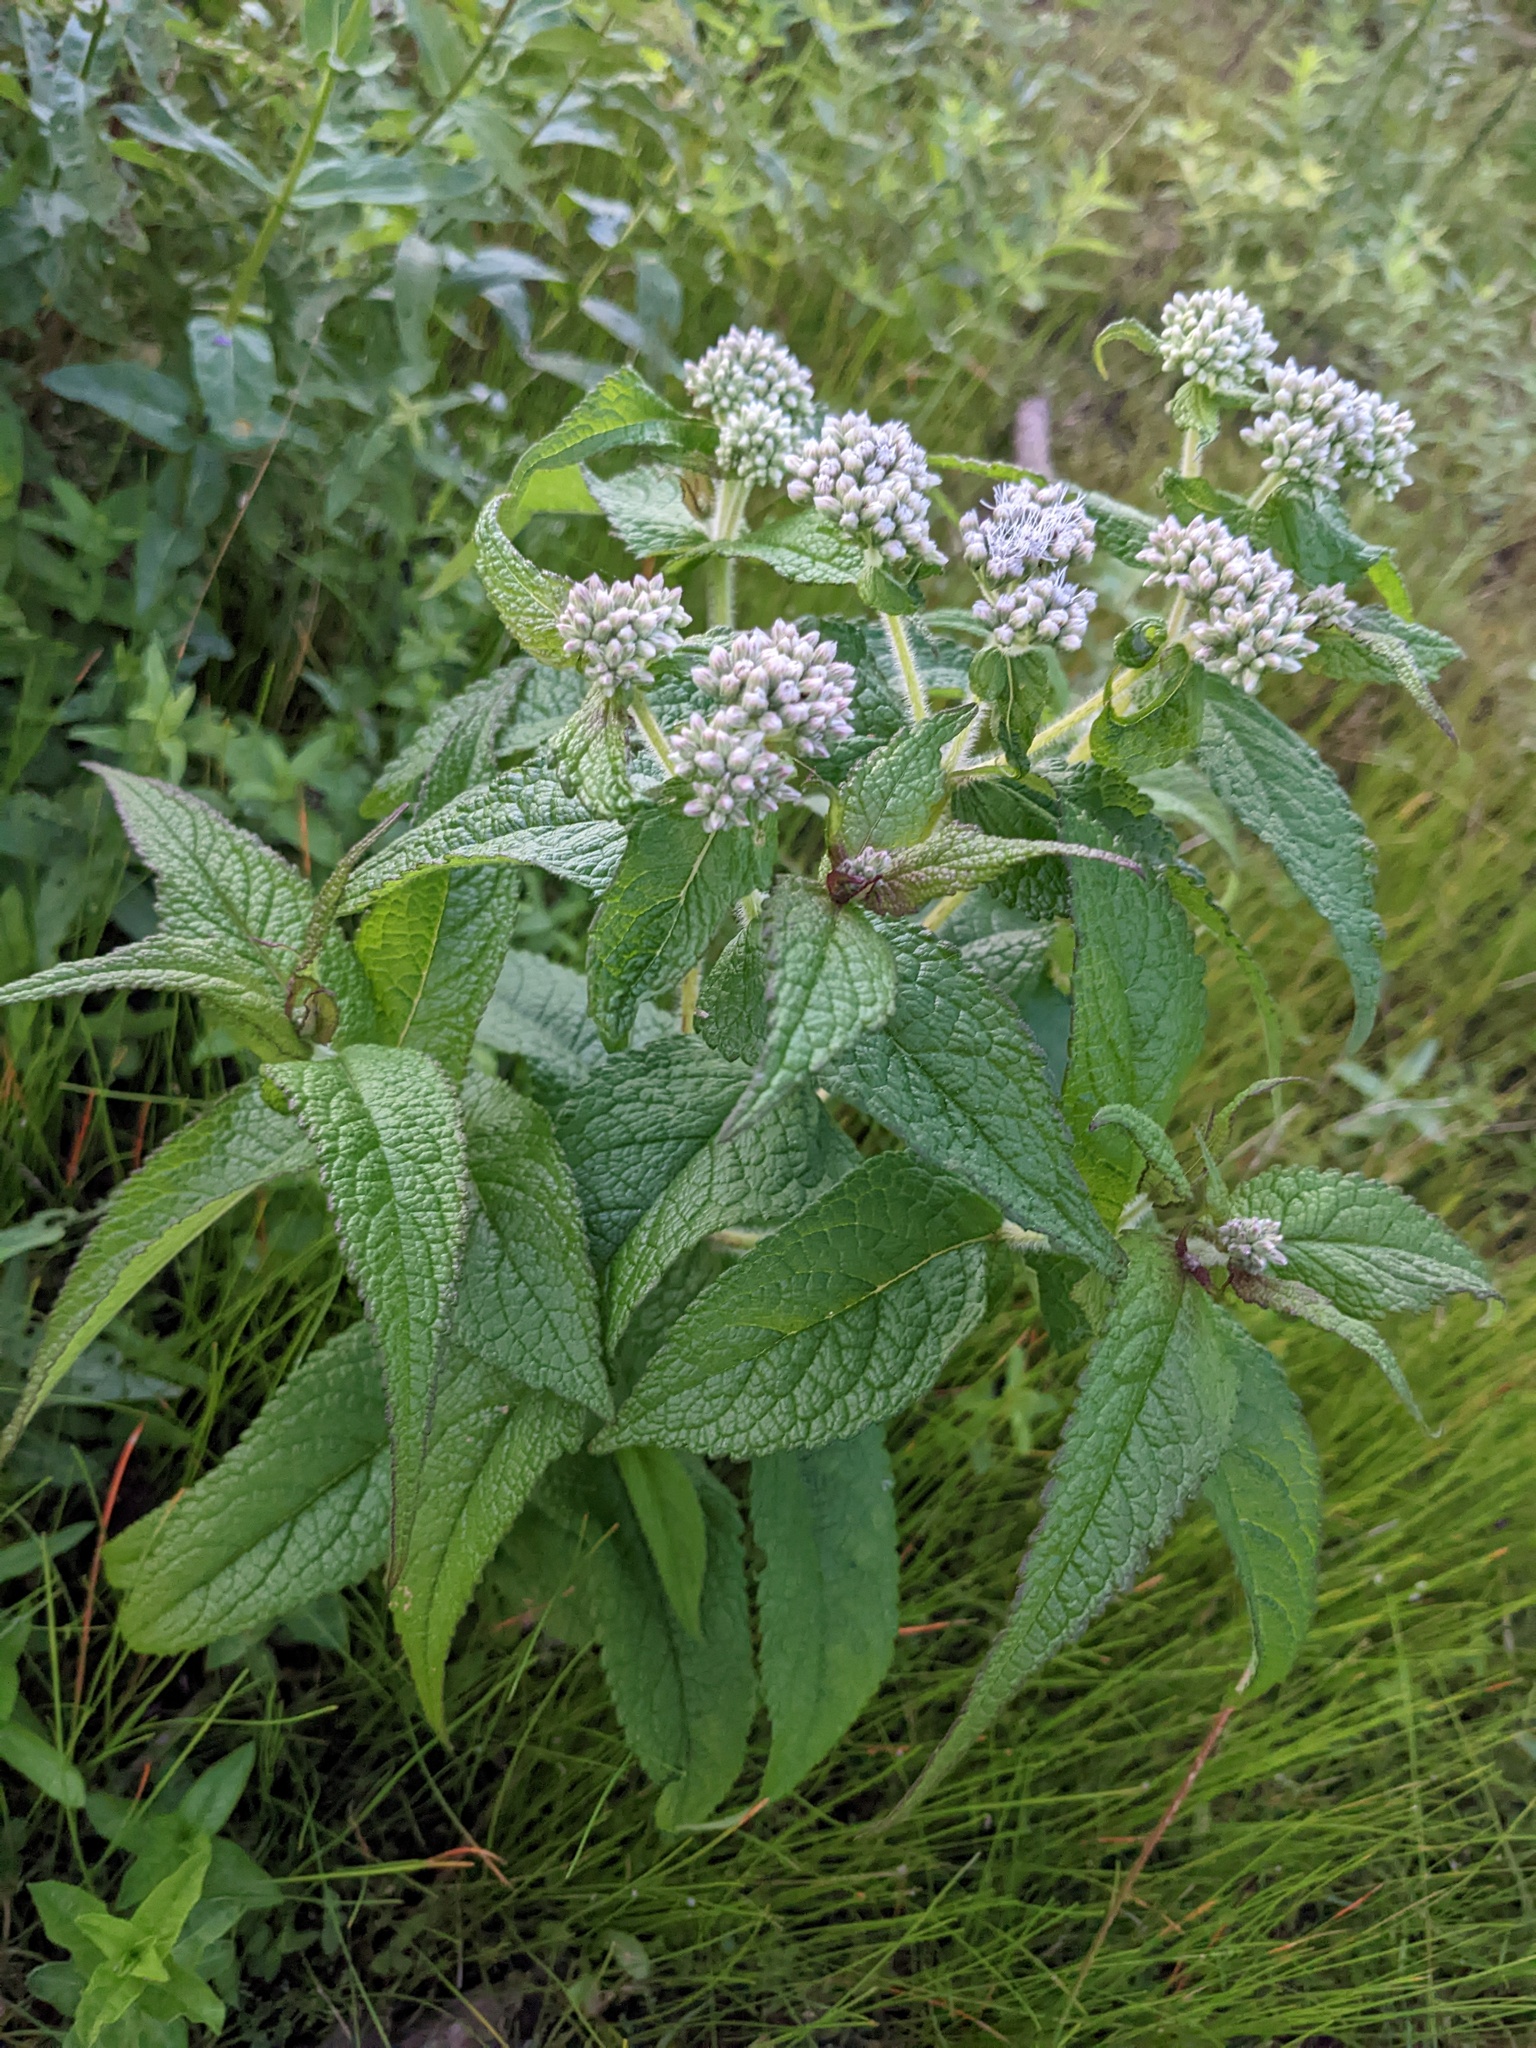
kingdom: Plantae
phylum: Tracheophyta
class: Magnoliopsida
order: Asterales
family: Asteraceae
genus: Eupatorium
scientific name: Eupatorium perfoliatum
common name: Boneset
